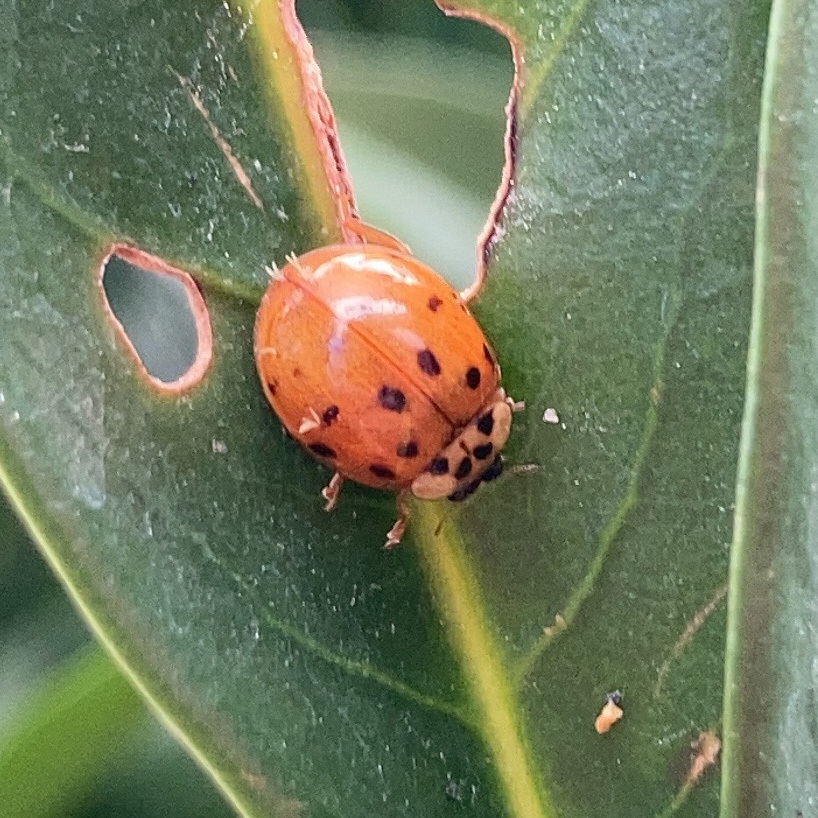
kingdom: Animalia
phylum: Arthropoda
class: Insecta
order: Coleoptera
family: Coccinellidae
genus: Harmonia
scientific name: Harmonia axyridis
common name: Harlequin ladybird
